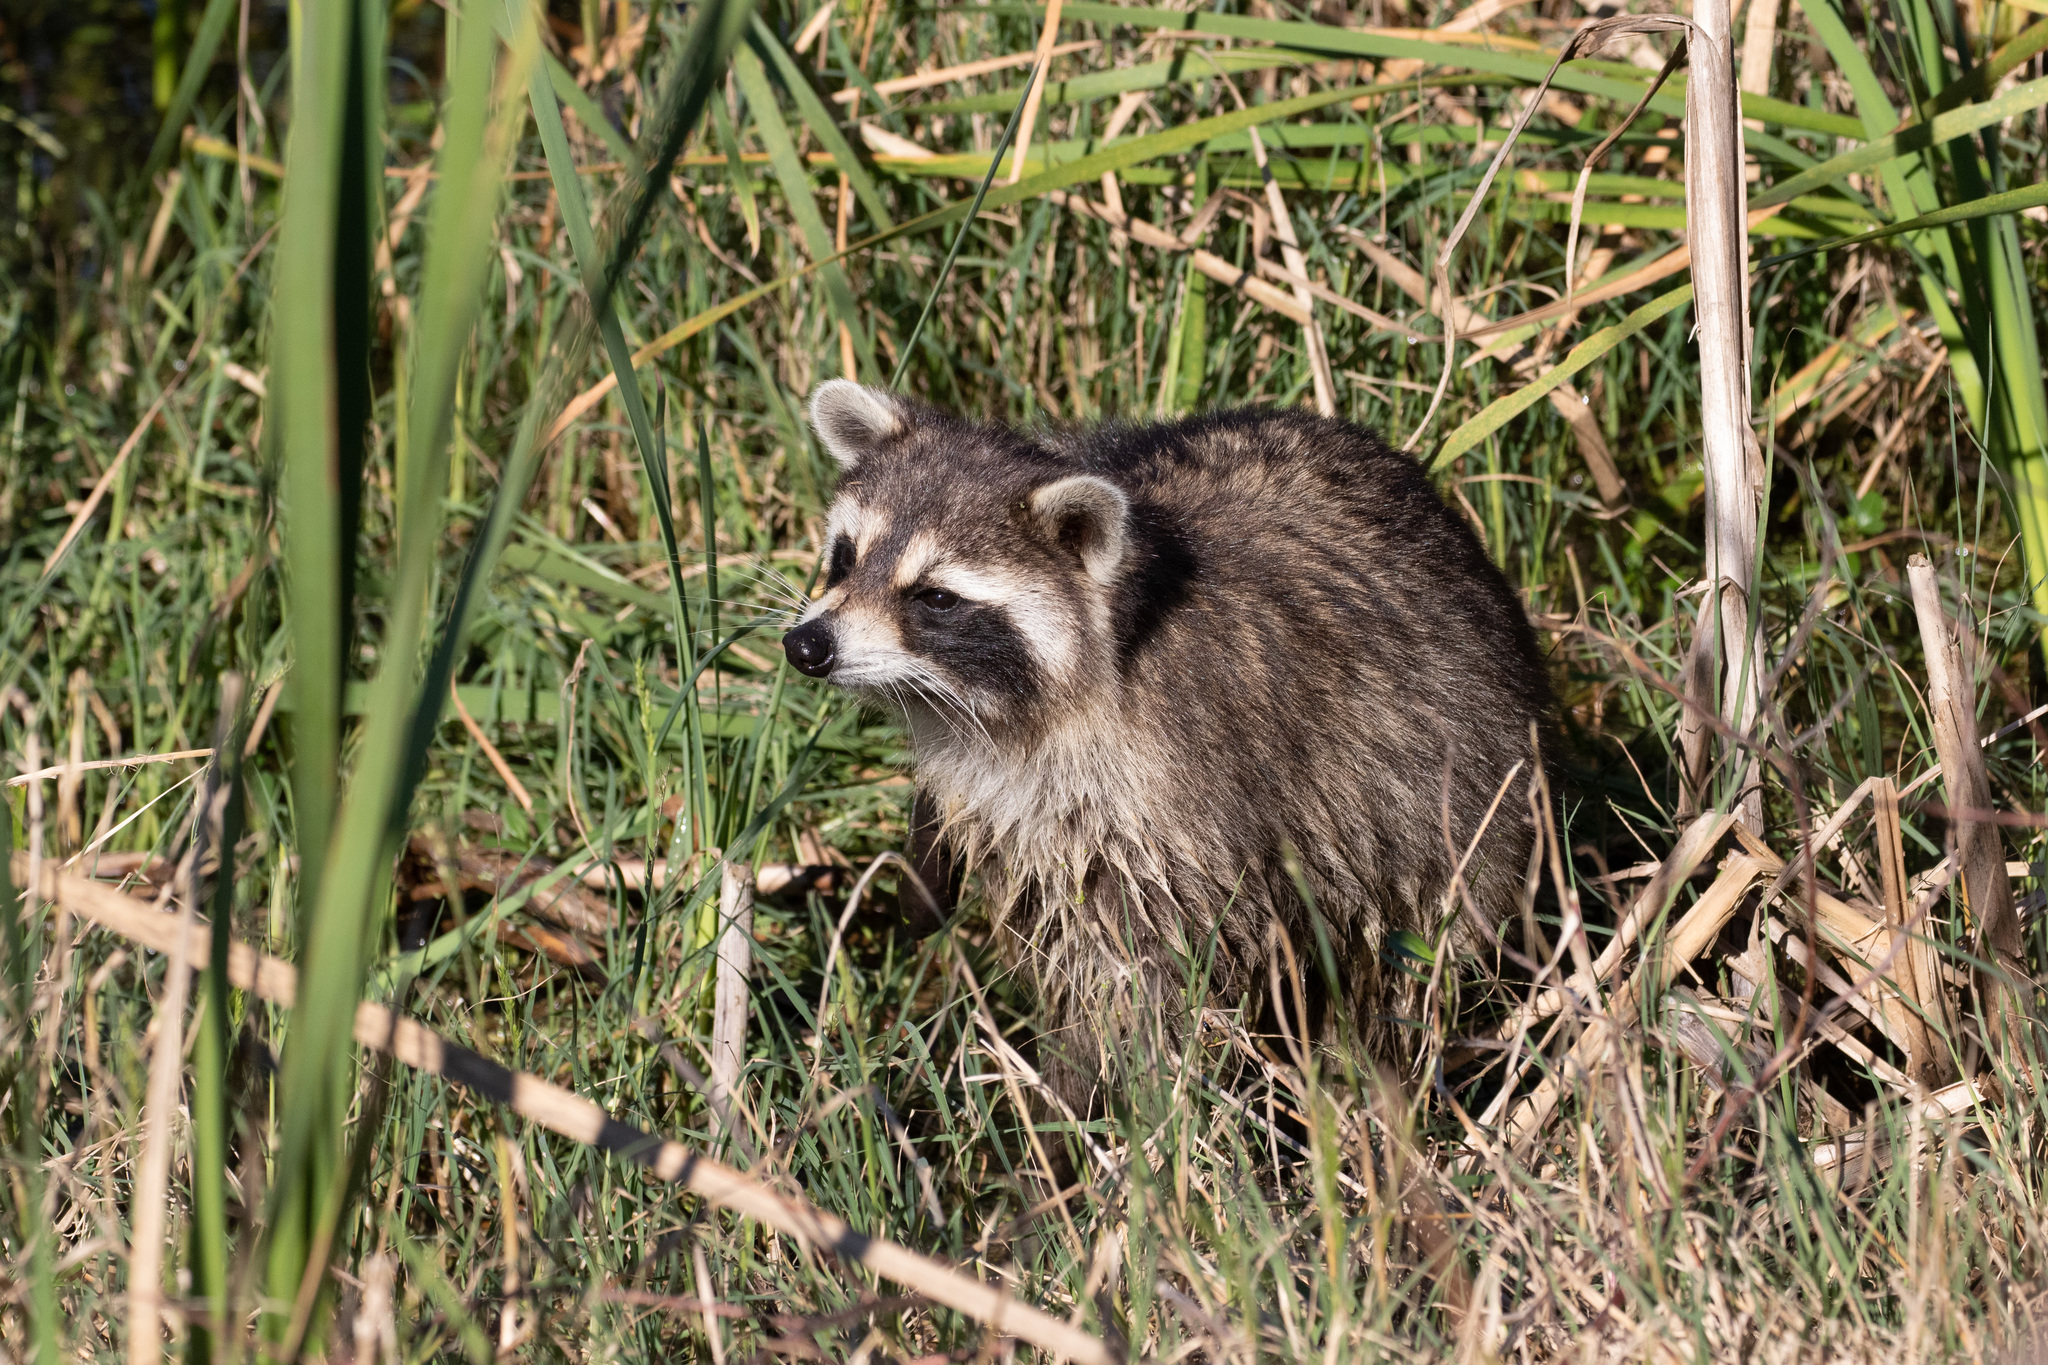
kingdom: Animalia
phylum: Chordata
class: Mammalia
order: Carnivora
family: Procyonidae
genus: Procyon
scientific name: Procyon lotor
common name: Raccoon
